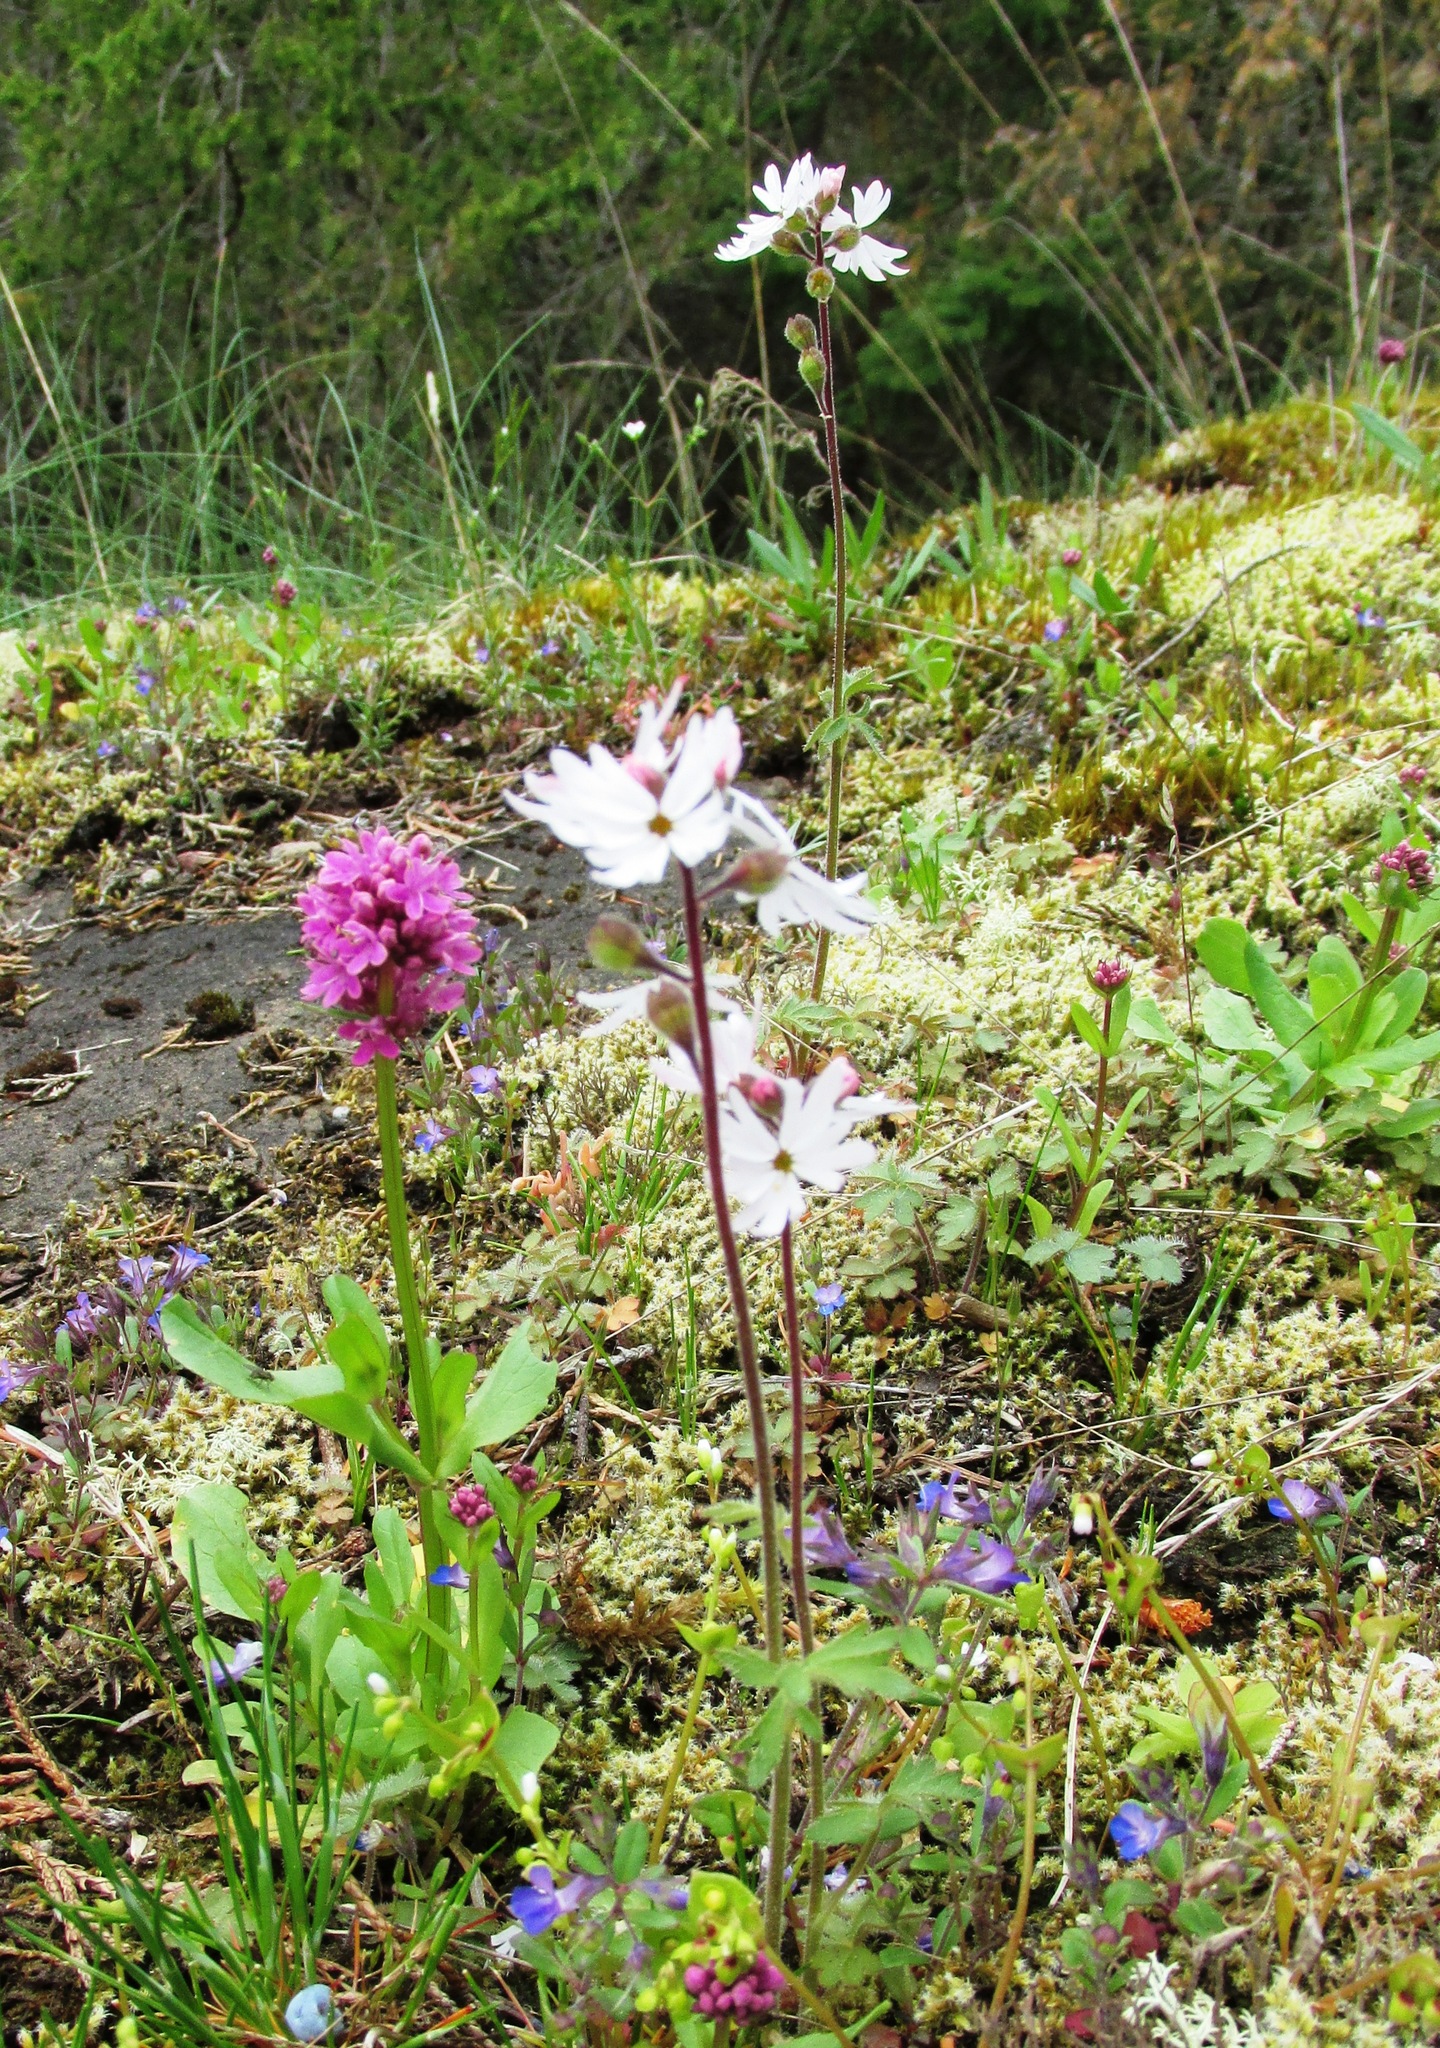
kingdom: Plantae
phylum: Tracheophyta
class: Magnoliopsida
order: Saxifragales
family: Saxifragaceae
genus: Lithophragma
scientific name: Lithophragma parviflorum
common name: Small-flowered fringe-cup
